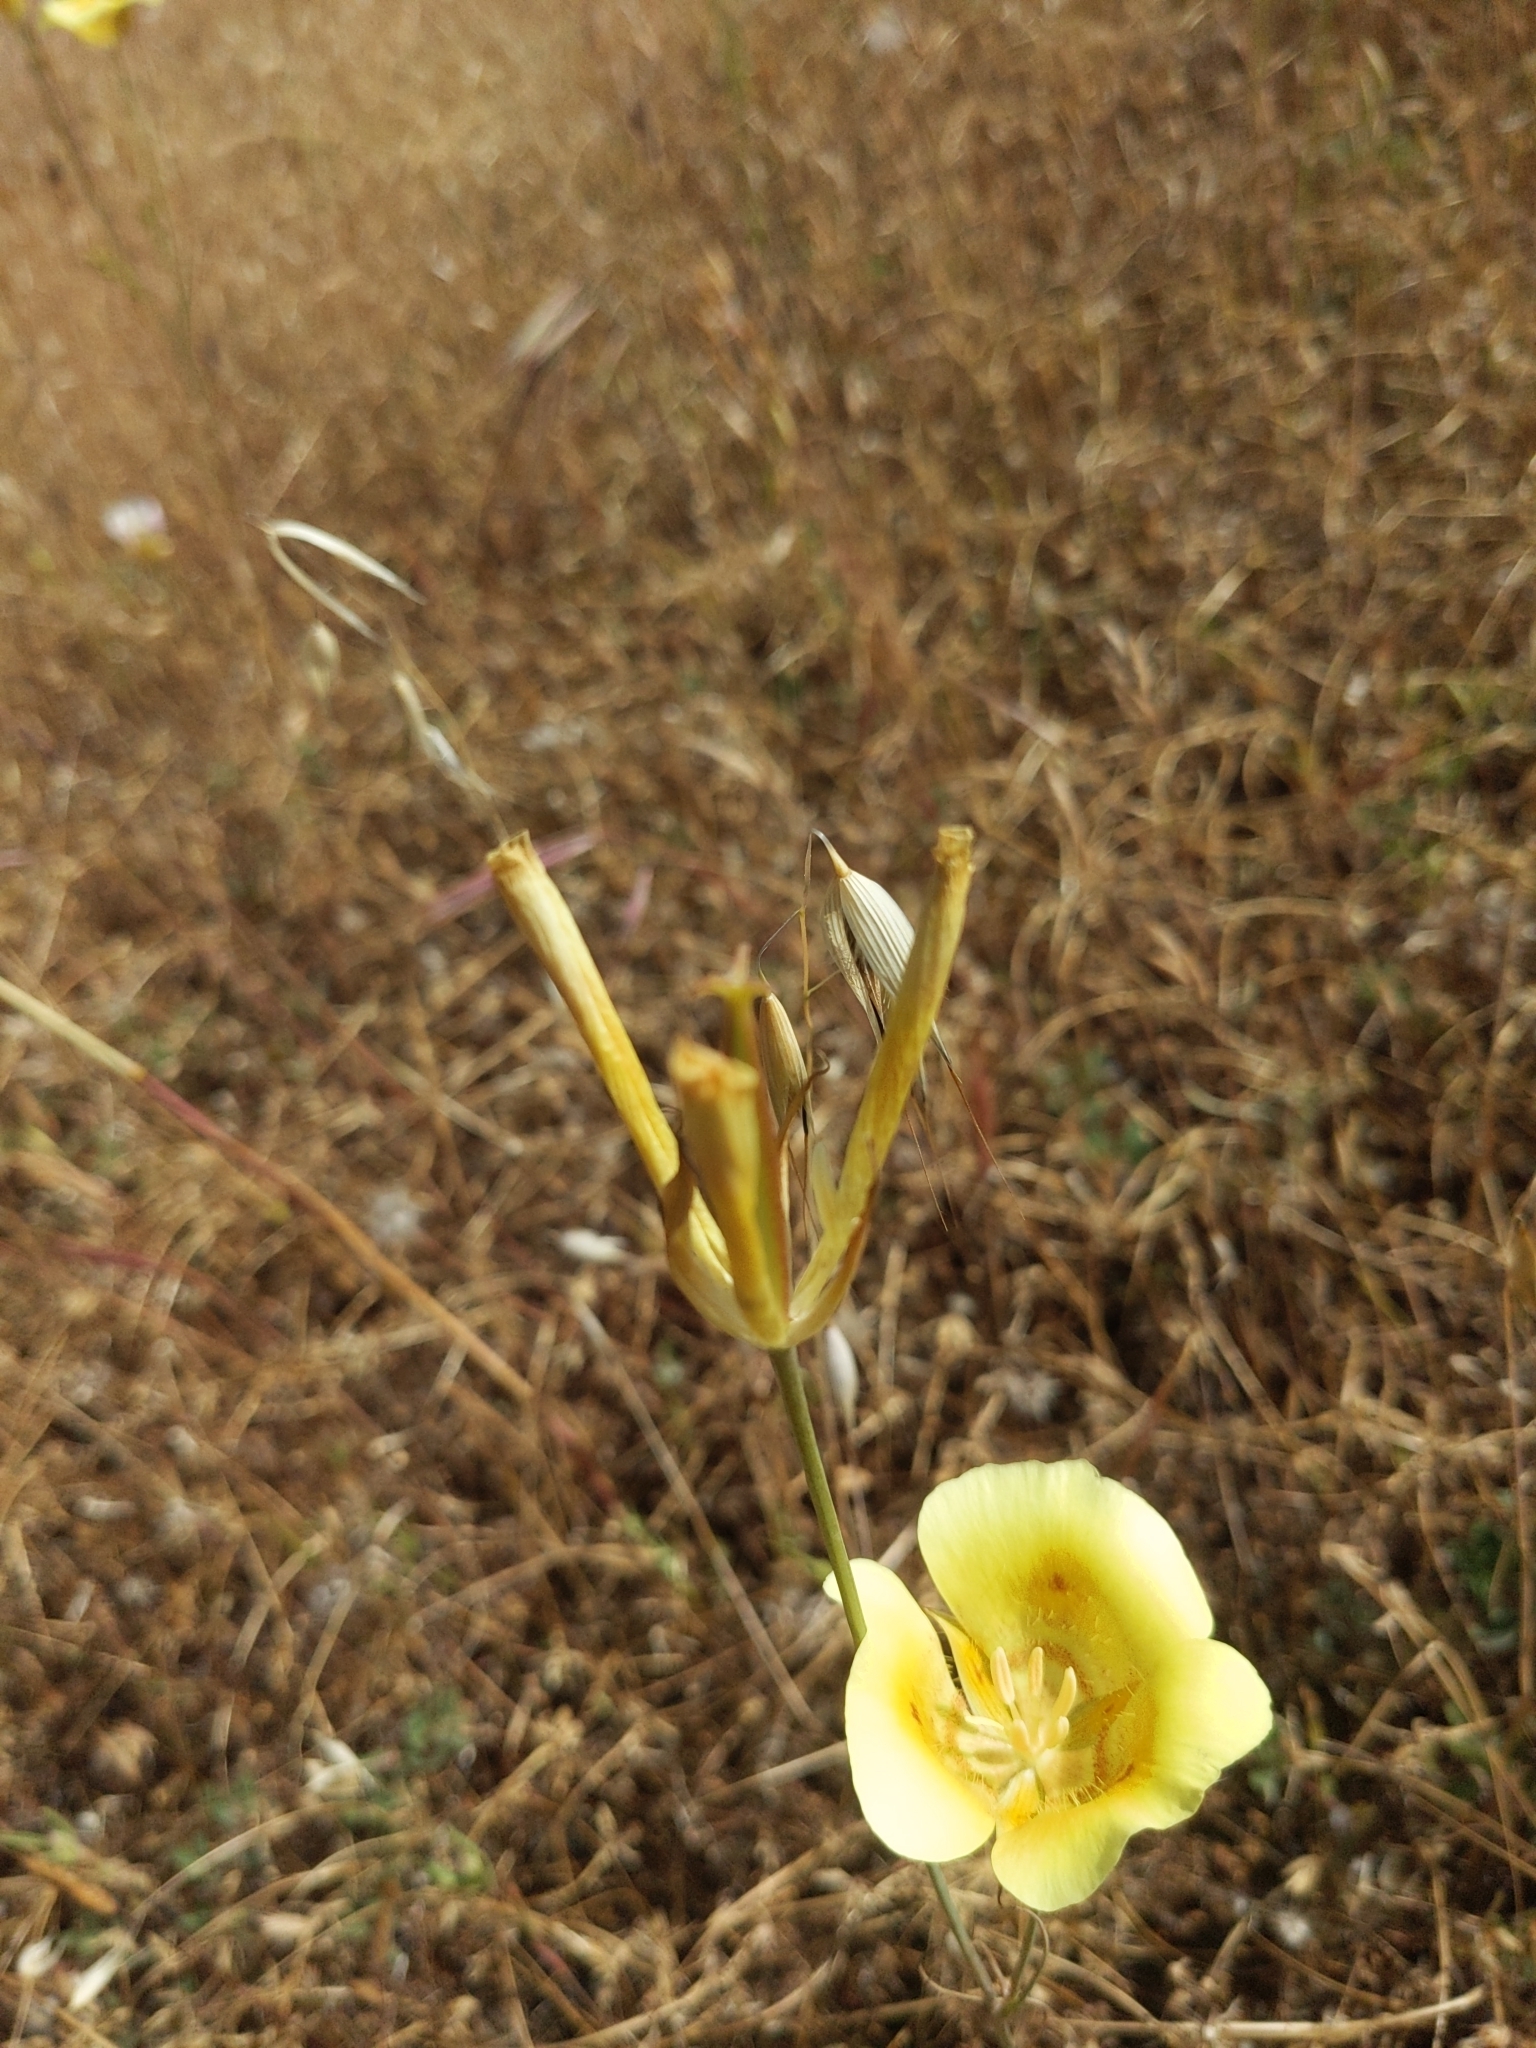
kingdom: Plantae
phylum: Tracheophyta
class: Liliopsida
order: Liliales
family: Liliaceae
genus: Calochortus
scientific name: Calochortus luteus
